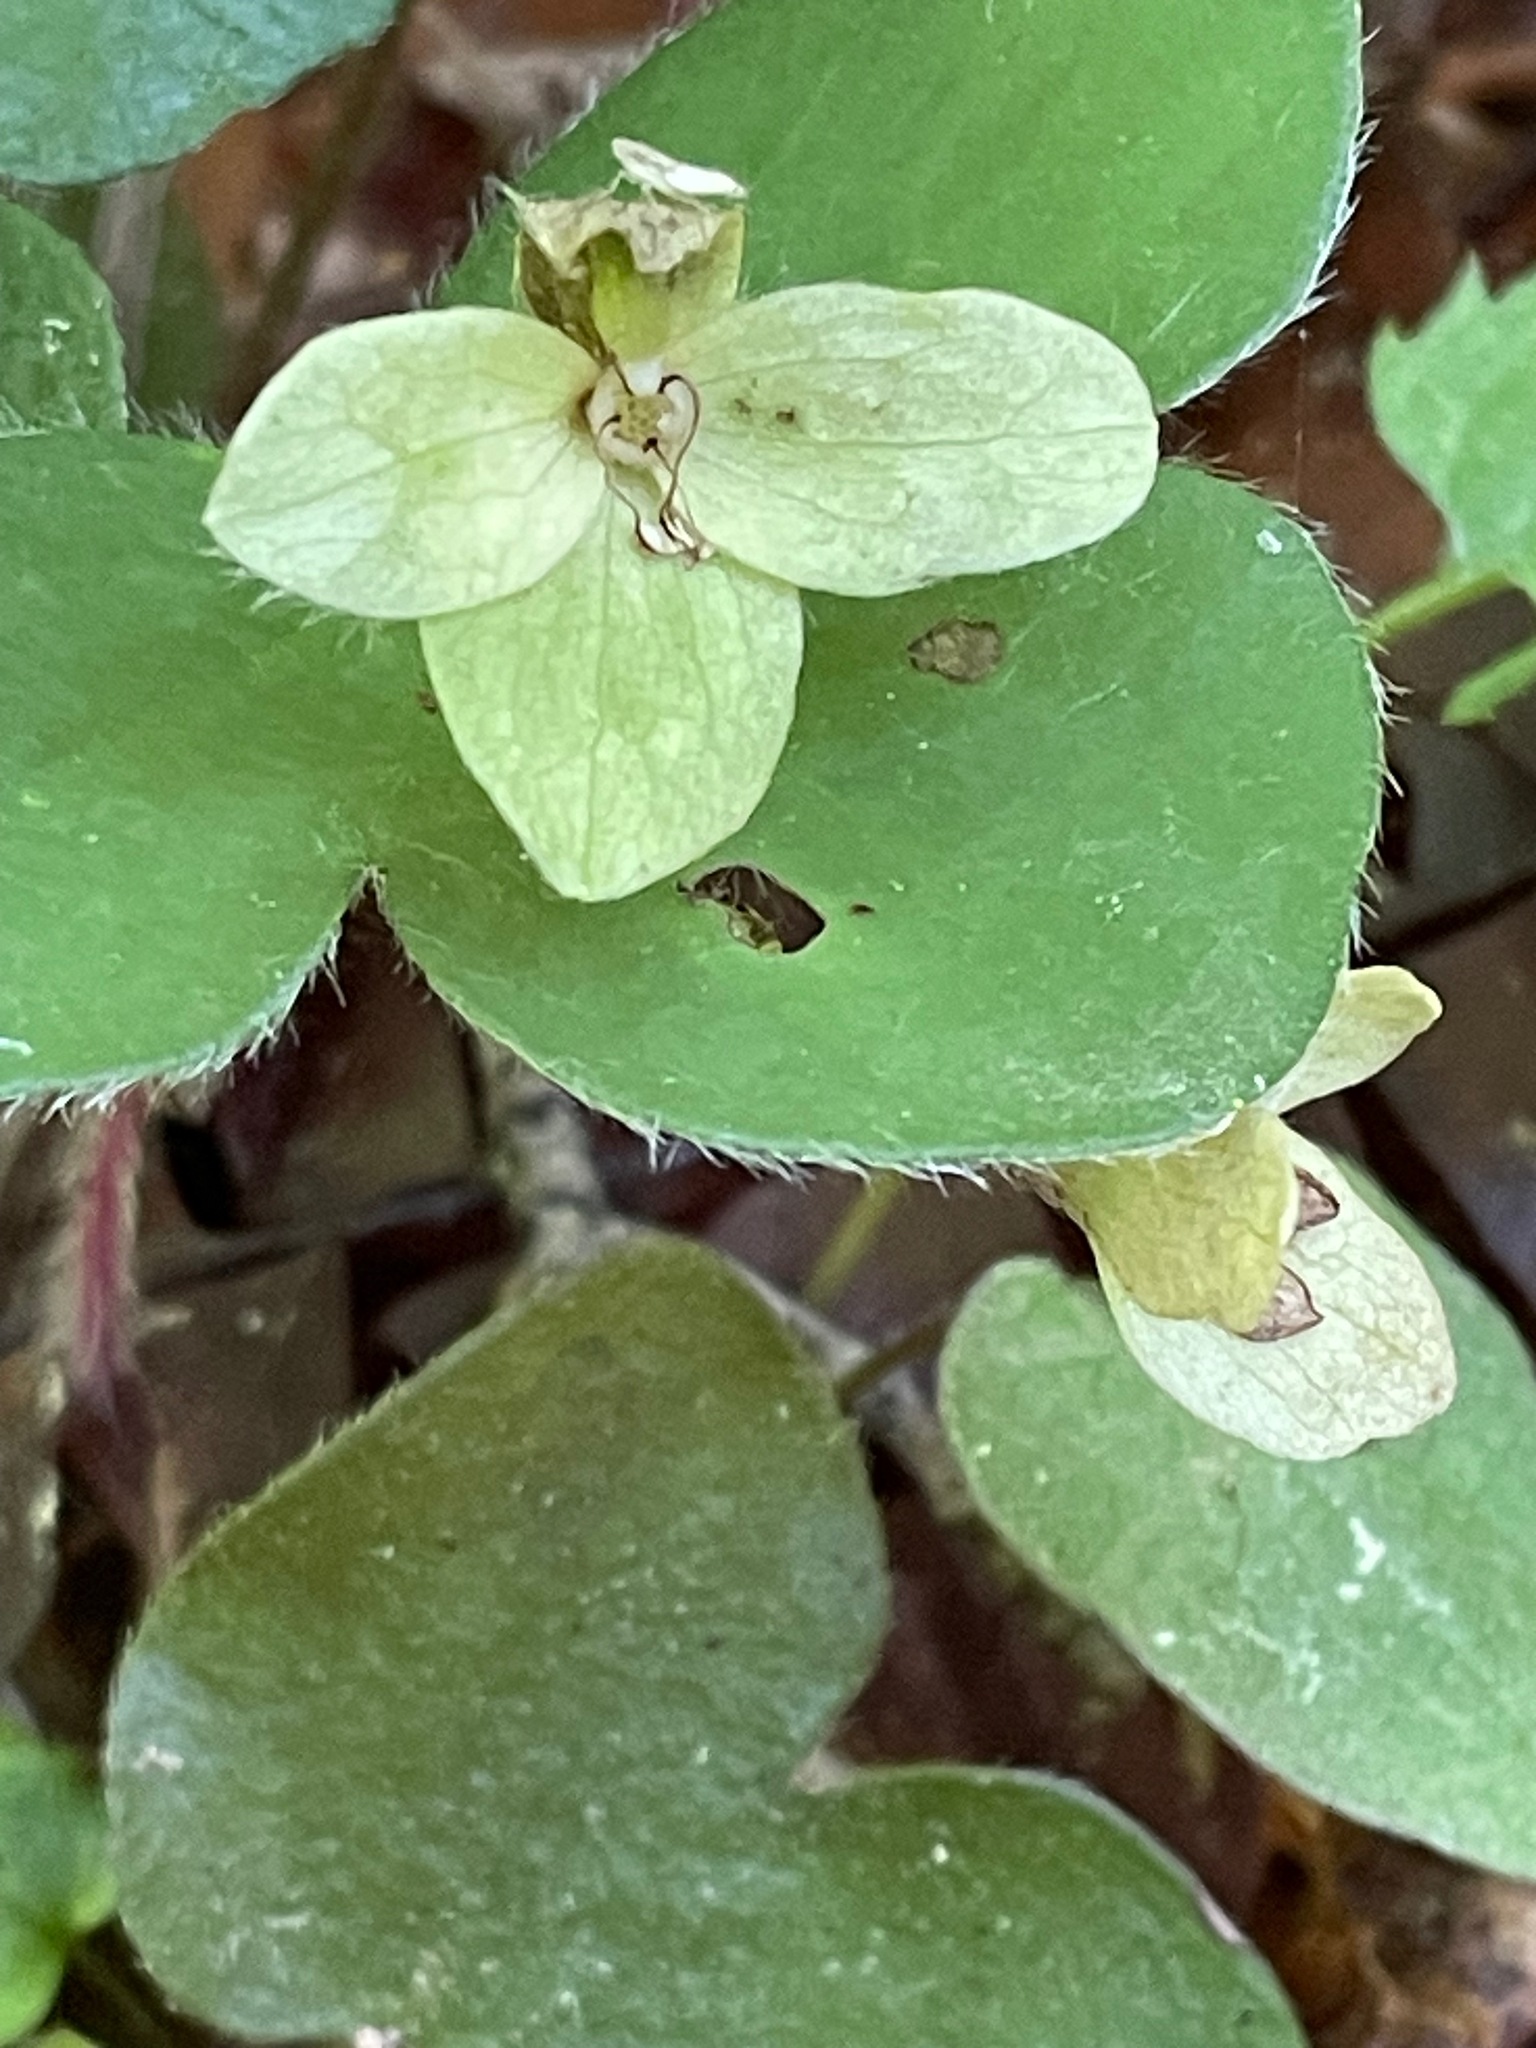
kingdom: Plantae
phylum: Tracheophyta
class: Magnoliopsida
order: Ranunculales
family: Ranunculaceae
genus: Hepatica
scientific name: Hepatica americana
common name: American hepatica
